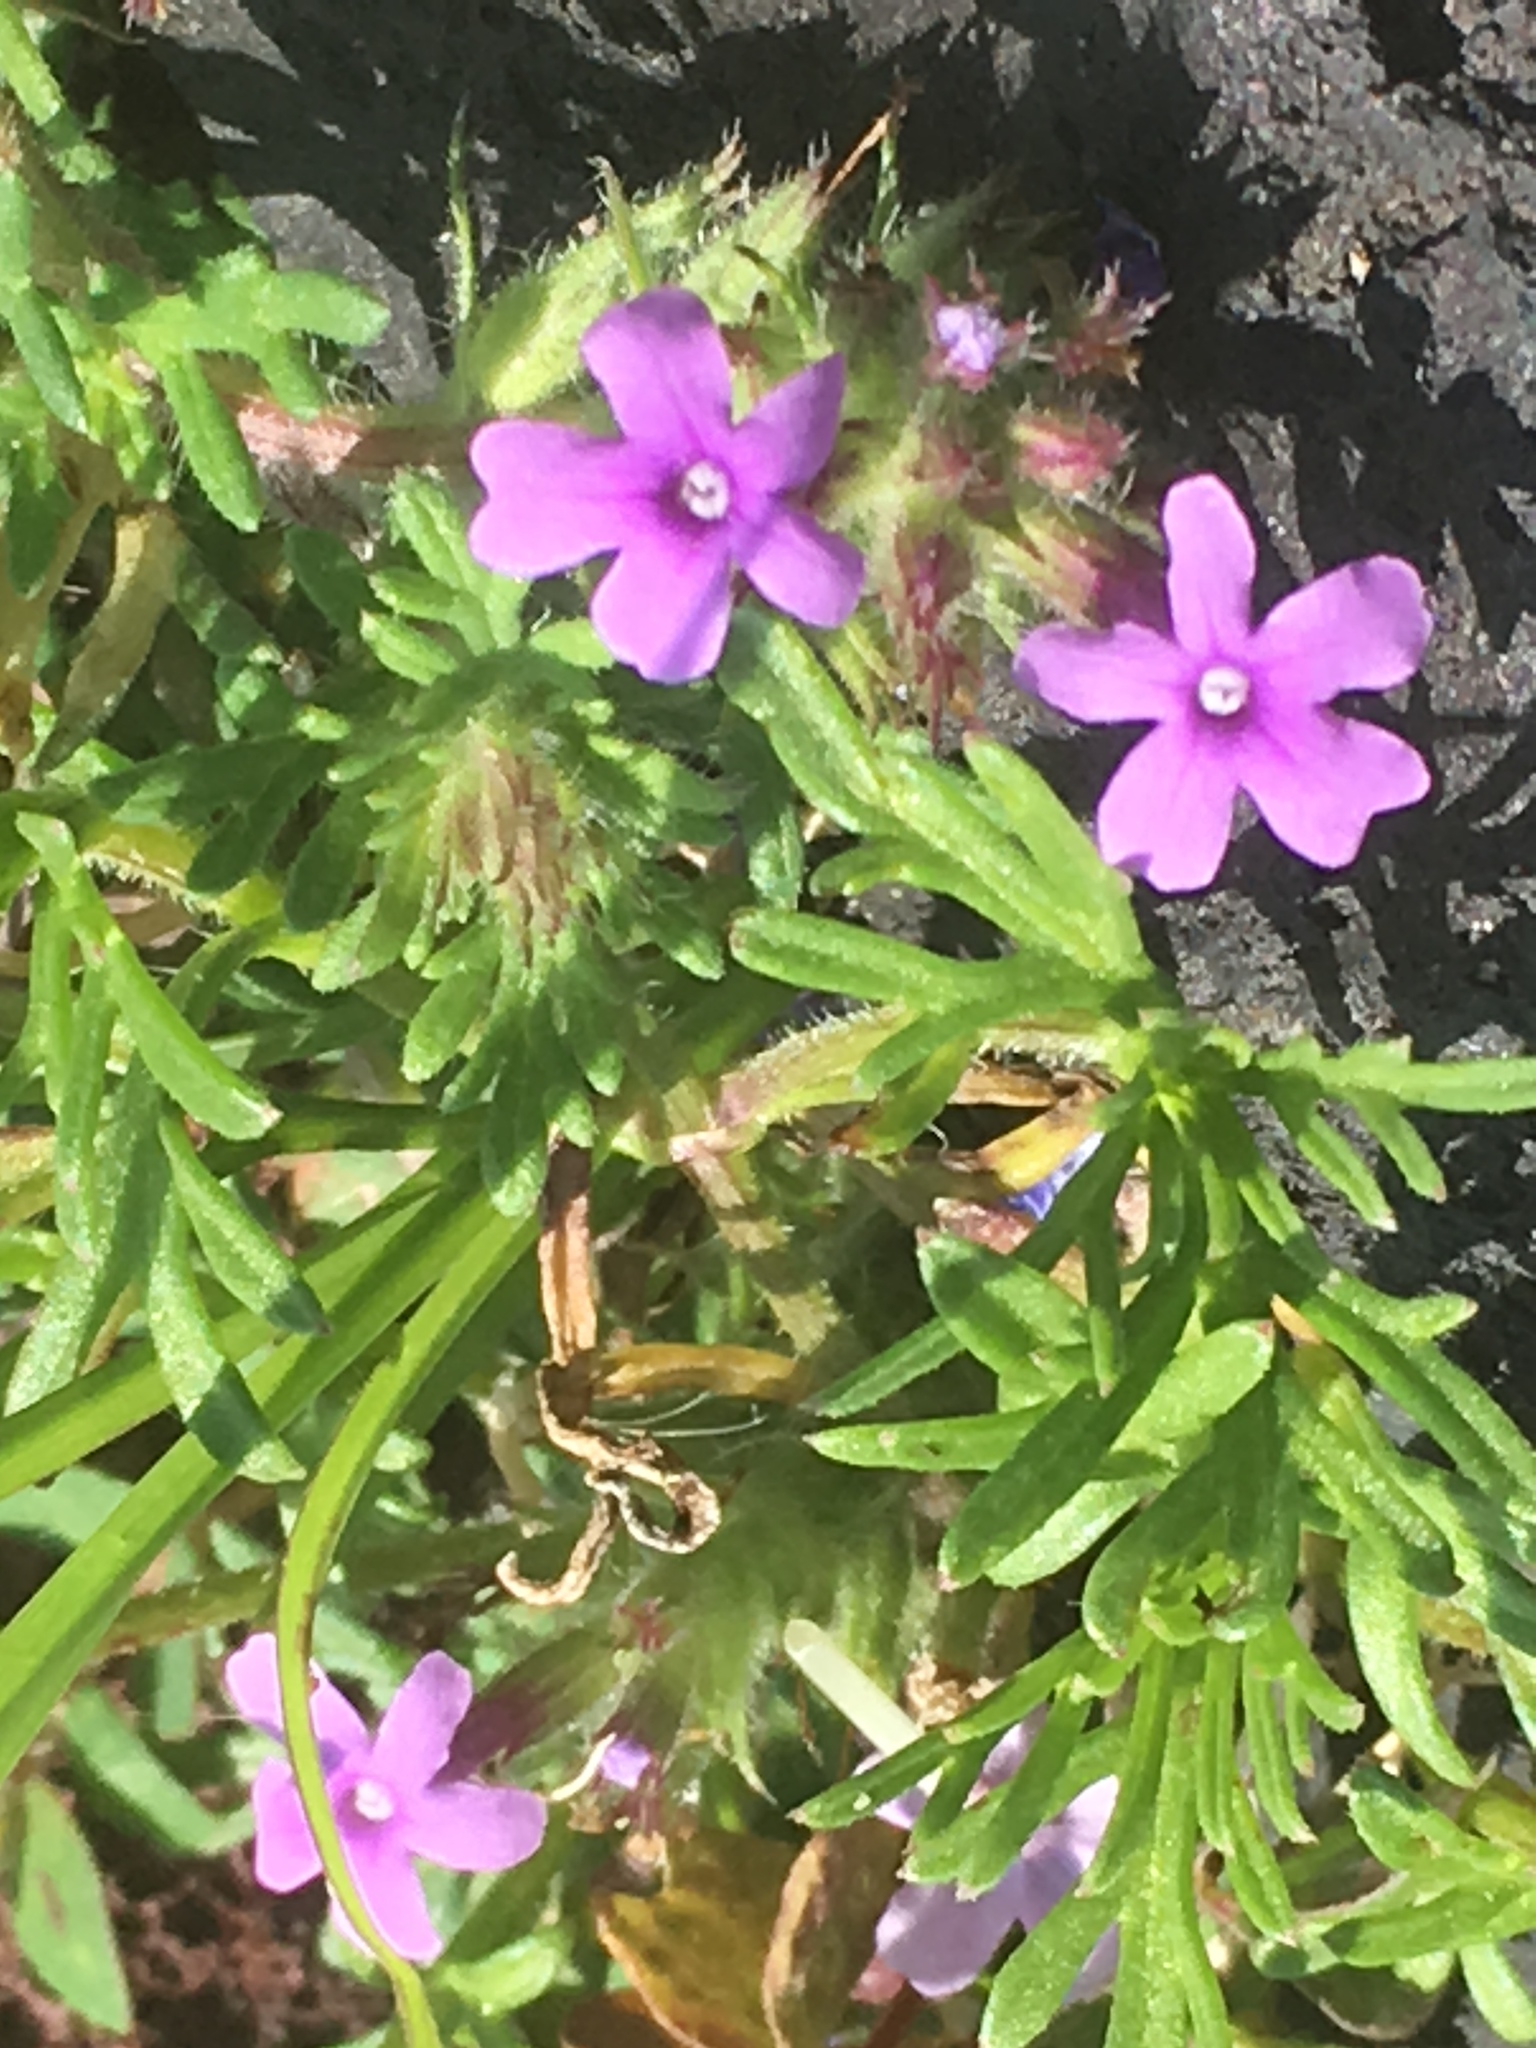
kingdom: Plantae
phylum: Tracheophyta
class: Magnoliopsida
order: Lamiales
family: Verbenaceae
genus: Verbena
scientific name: Verbena bipinnatifida
